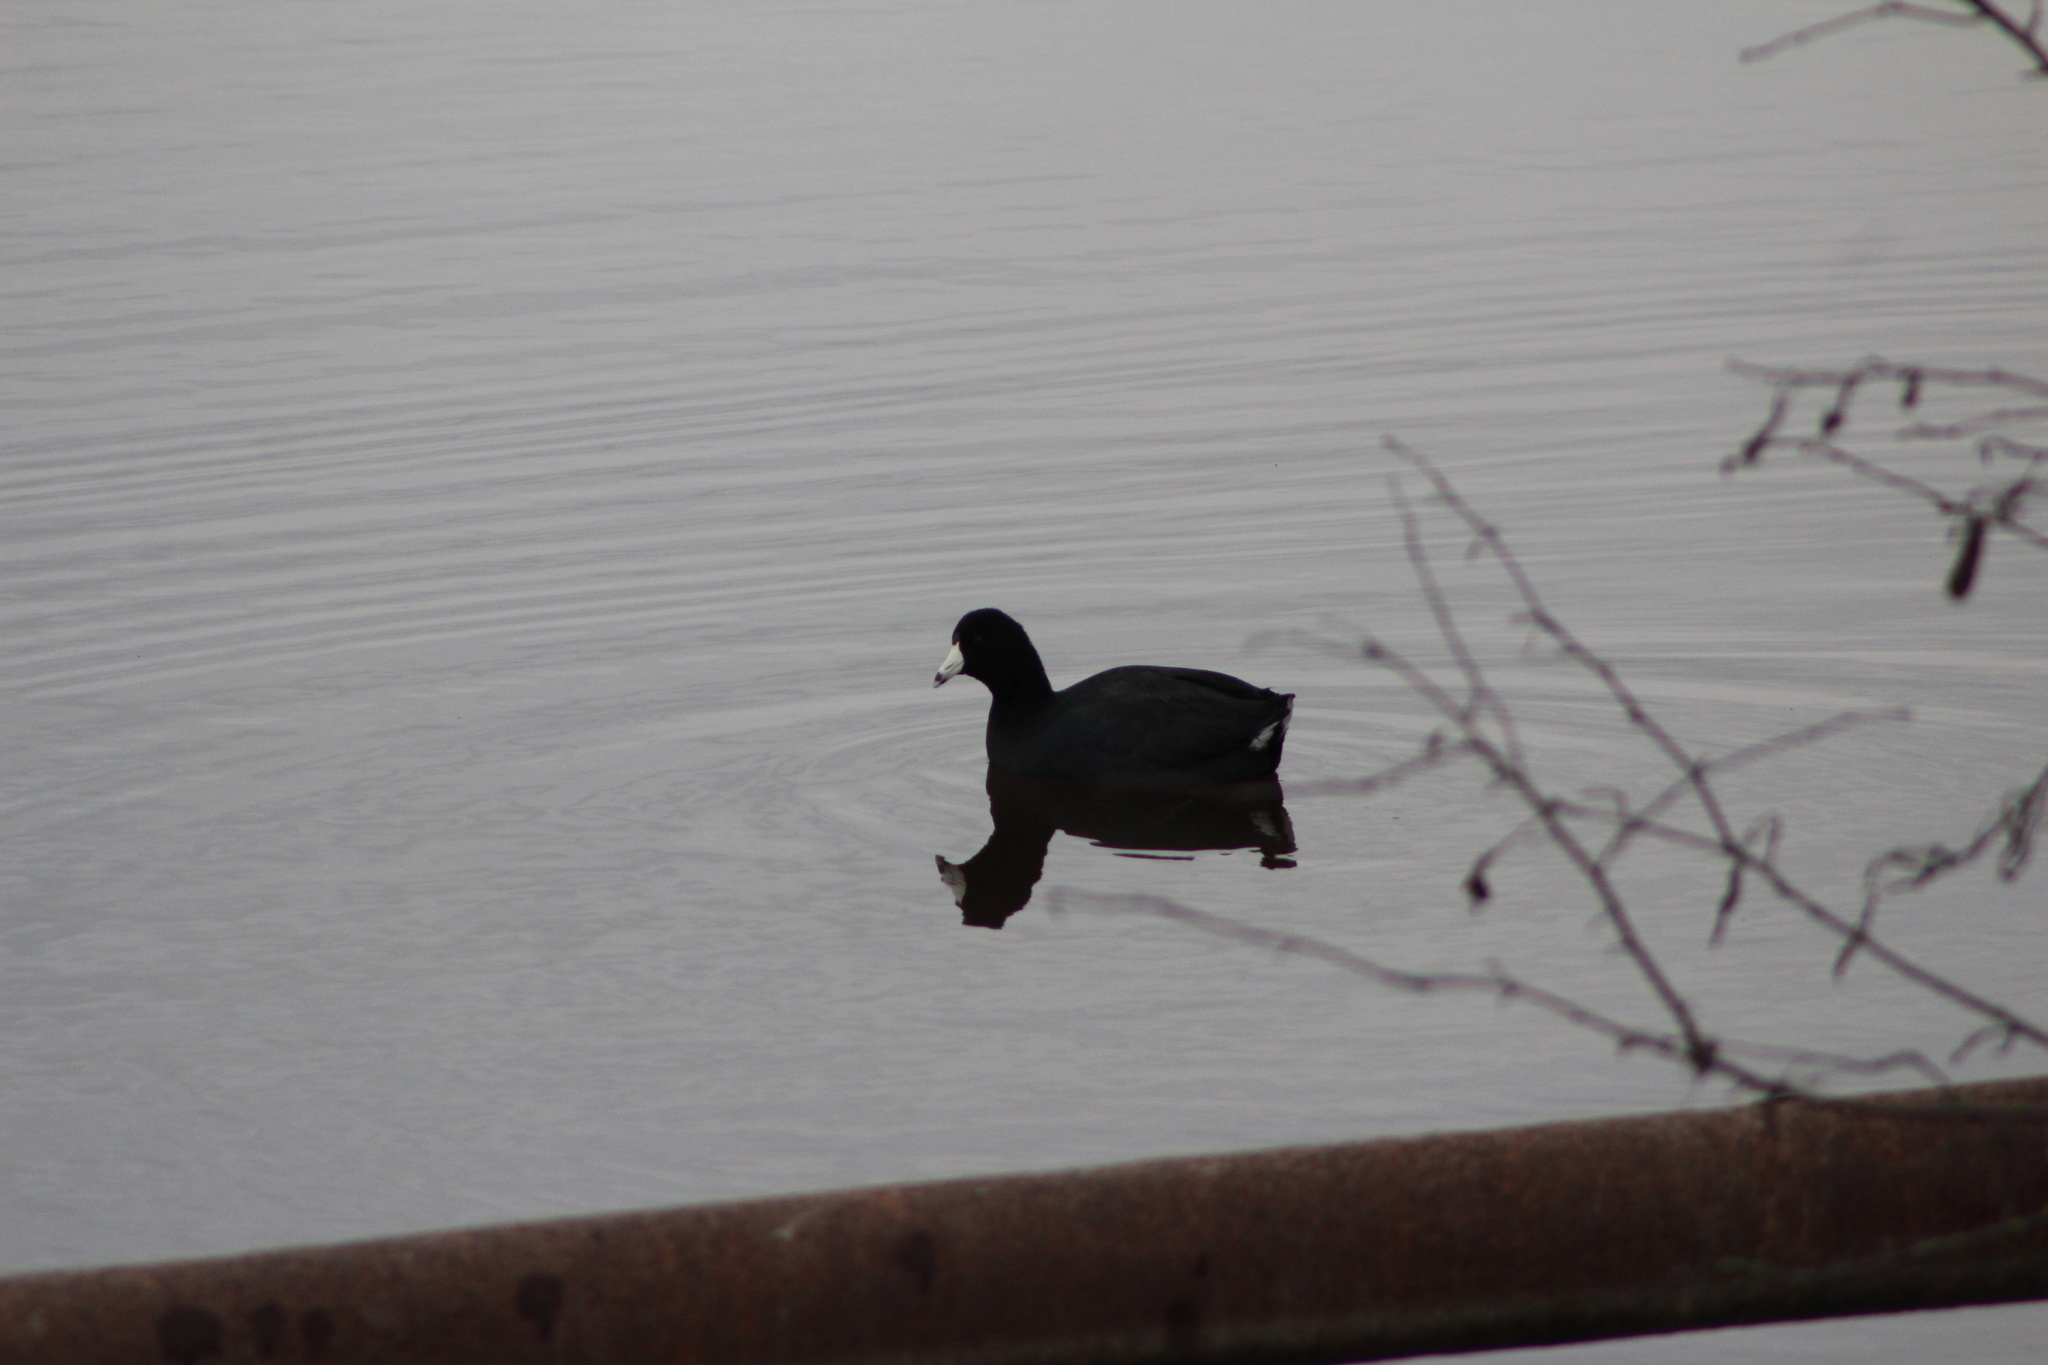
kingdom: Animalia
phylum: Chordata
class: Aves
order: Gruiformes
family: Rallidae
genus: Fulica
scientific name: Fulica americana
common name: American coot
